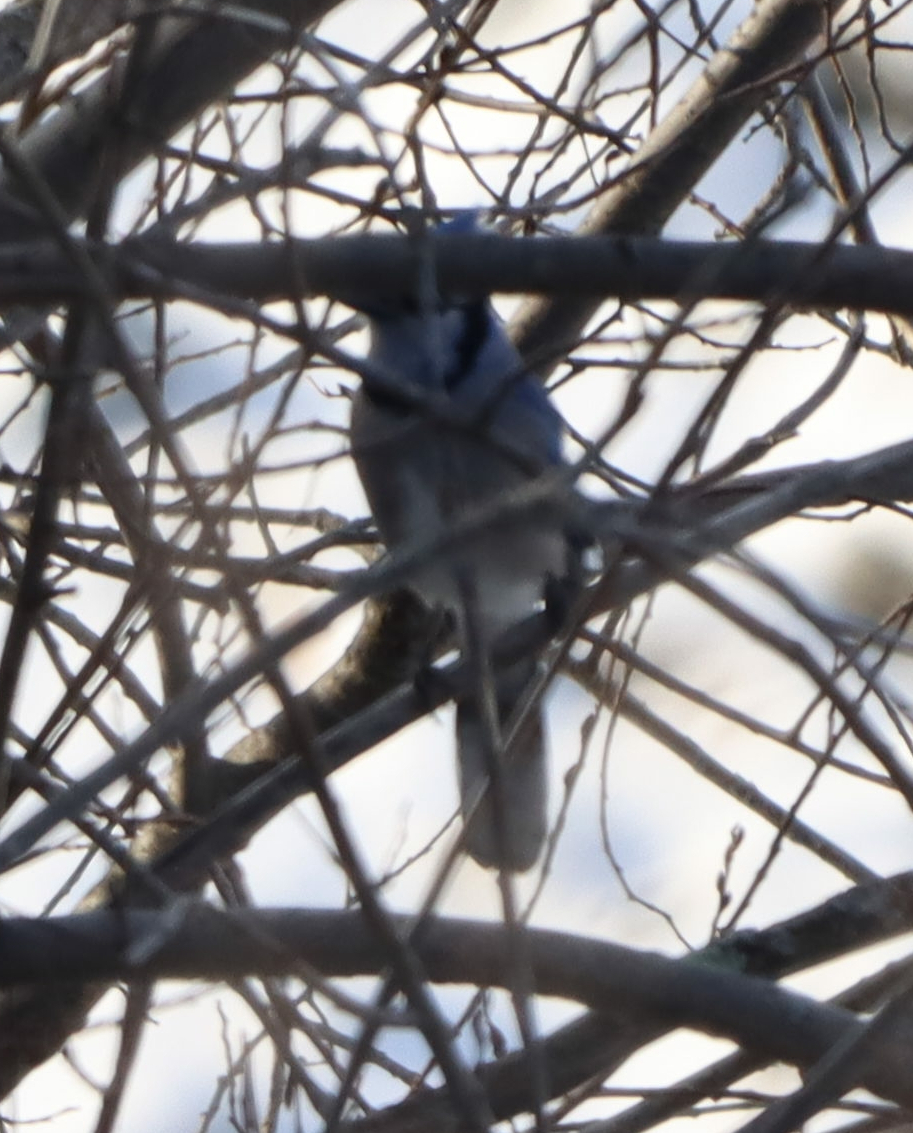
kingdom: Animalia
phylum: Chordata
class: Aves
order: Passeriformes
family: Corvidae
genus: Cyanocitta
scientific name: Cyanocitta cristata
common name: Blue jay
